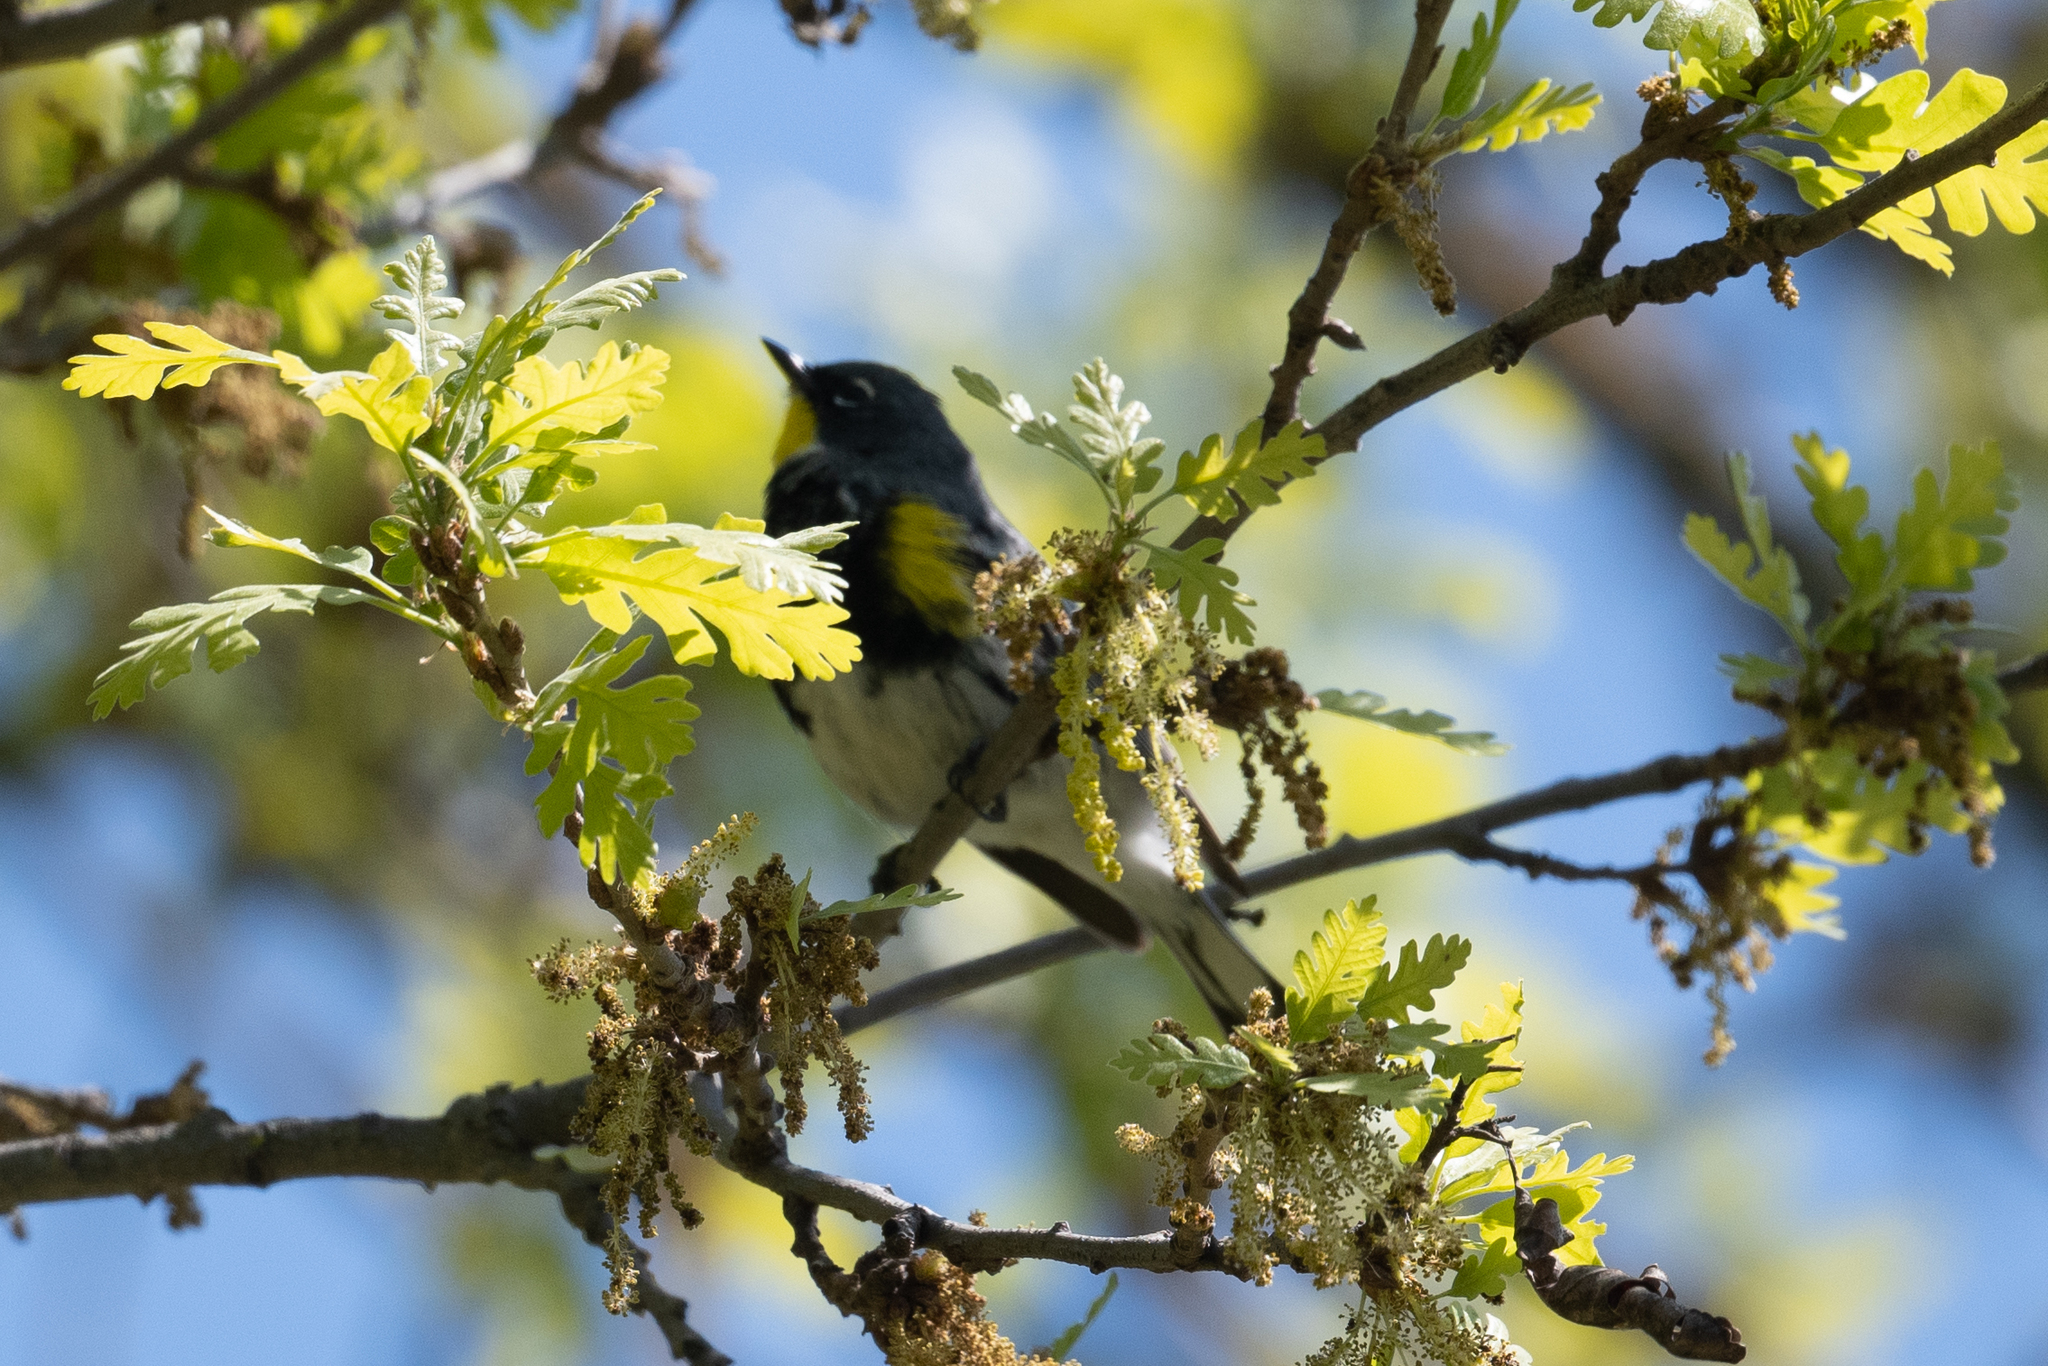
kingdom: Animalia
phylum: Chordata
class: Aves
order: Passeriformes
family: Parulidae
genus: Setophaga
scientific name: Setophaga coronata
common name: Myrtle warbler
